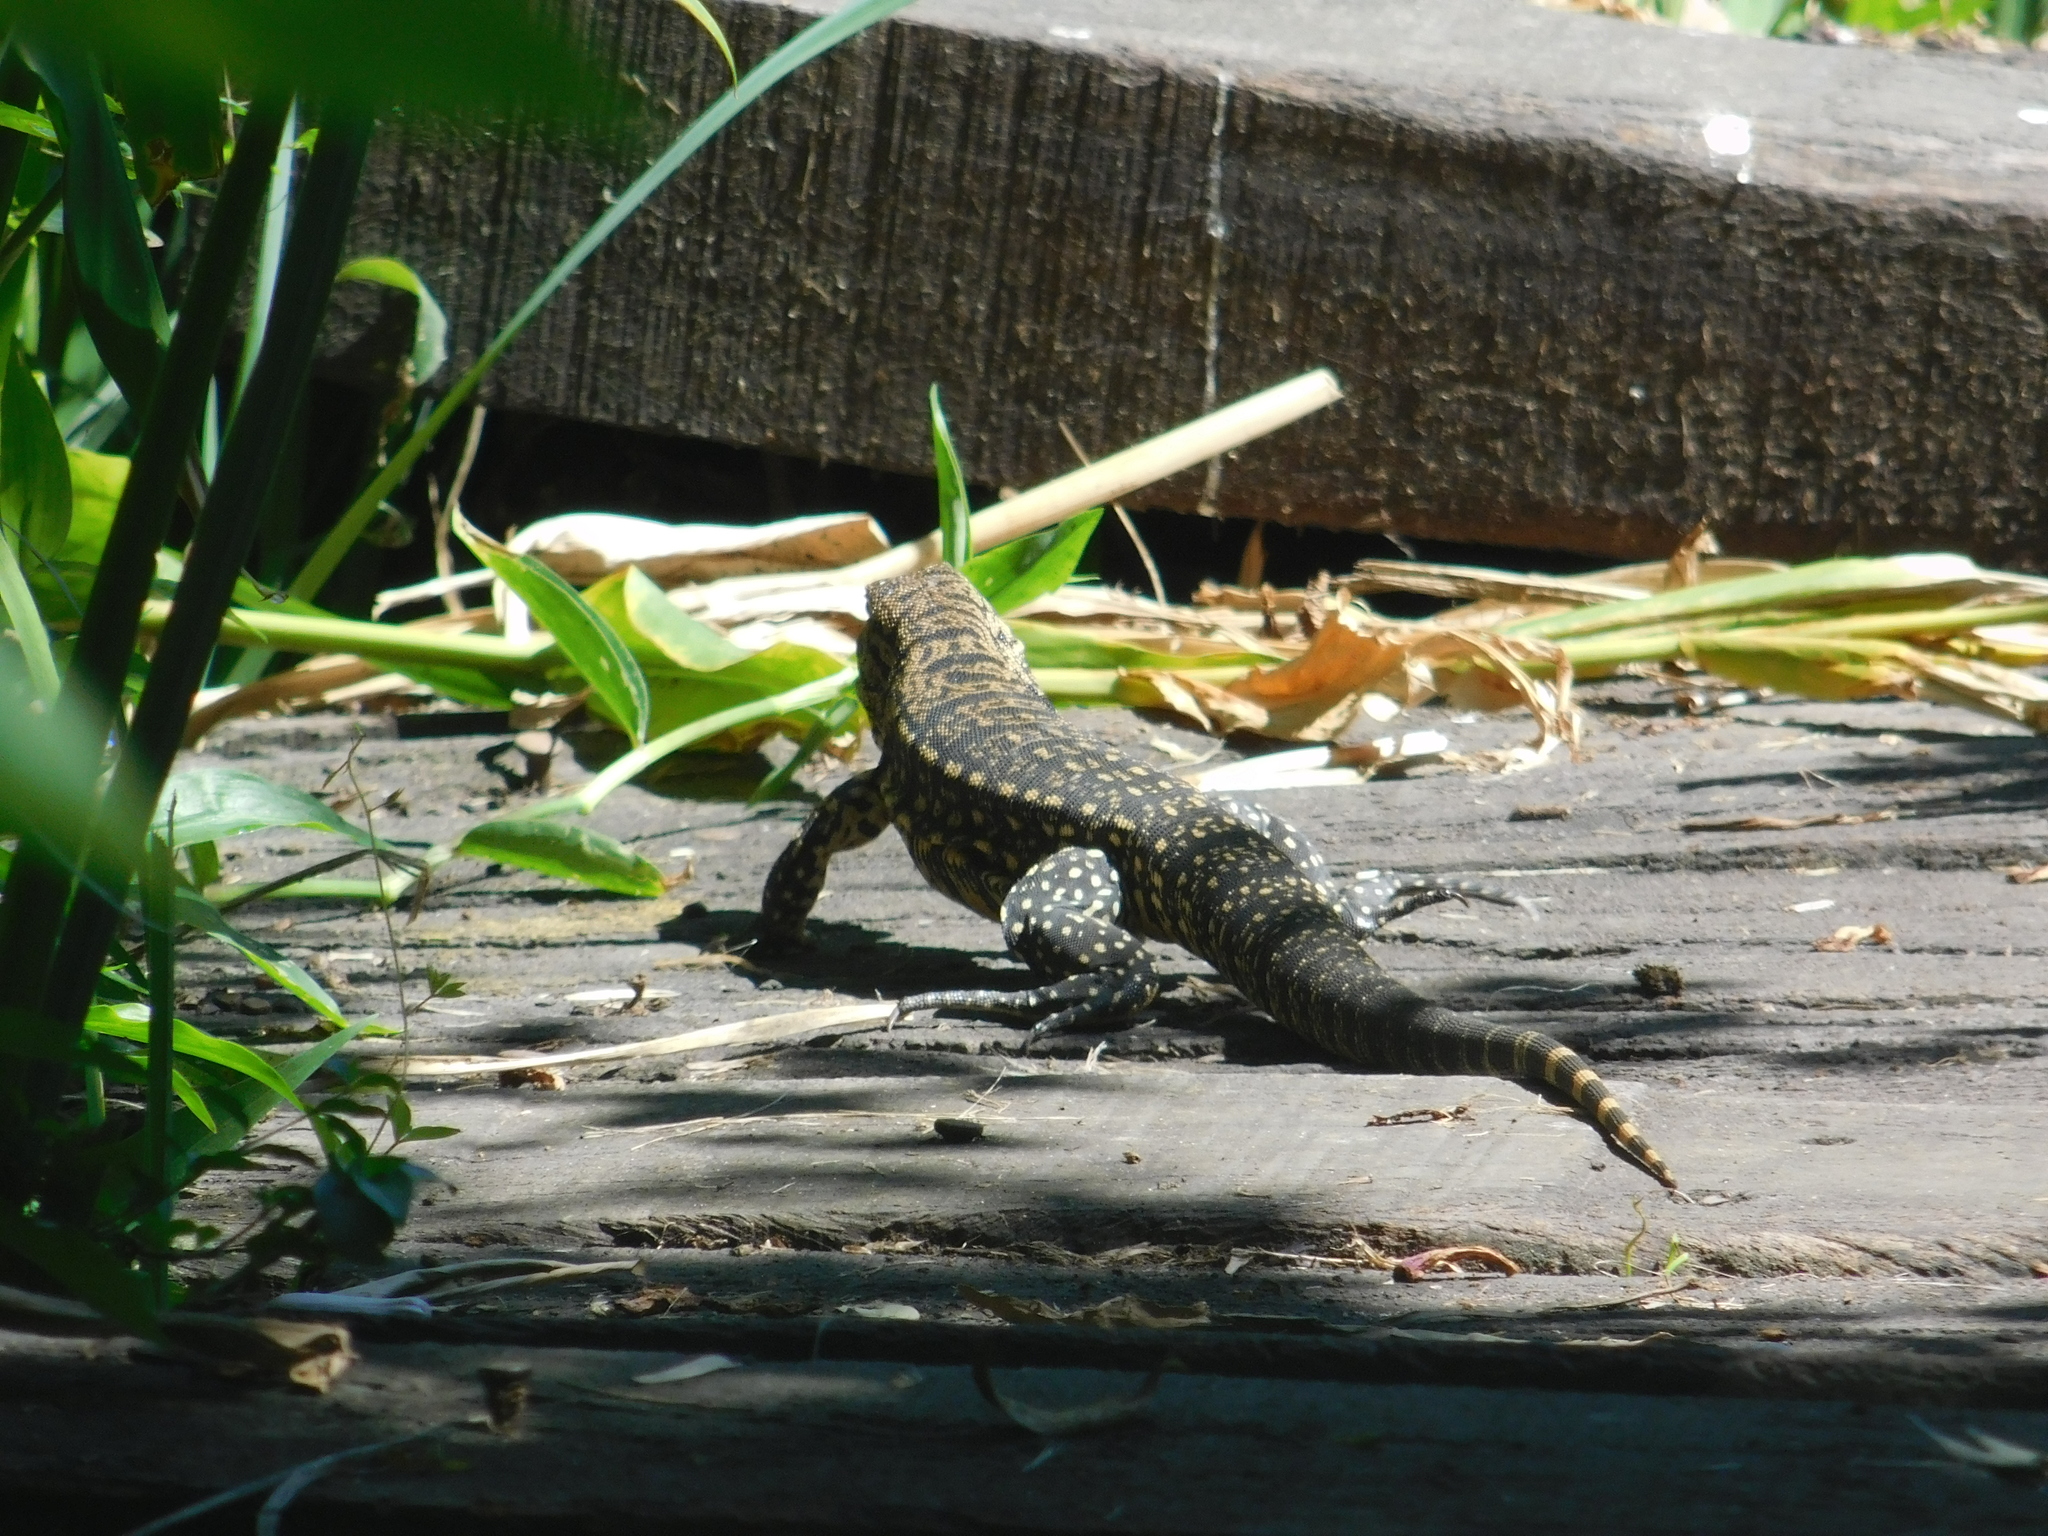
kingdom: Animalia
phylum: Chordata
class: Squamata
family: Teiidae
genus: Salvator
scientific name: Salvator merianae
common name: Argentine black and white tegu
